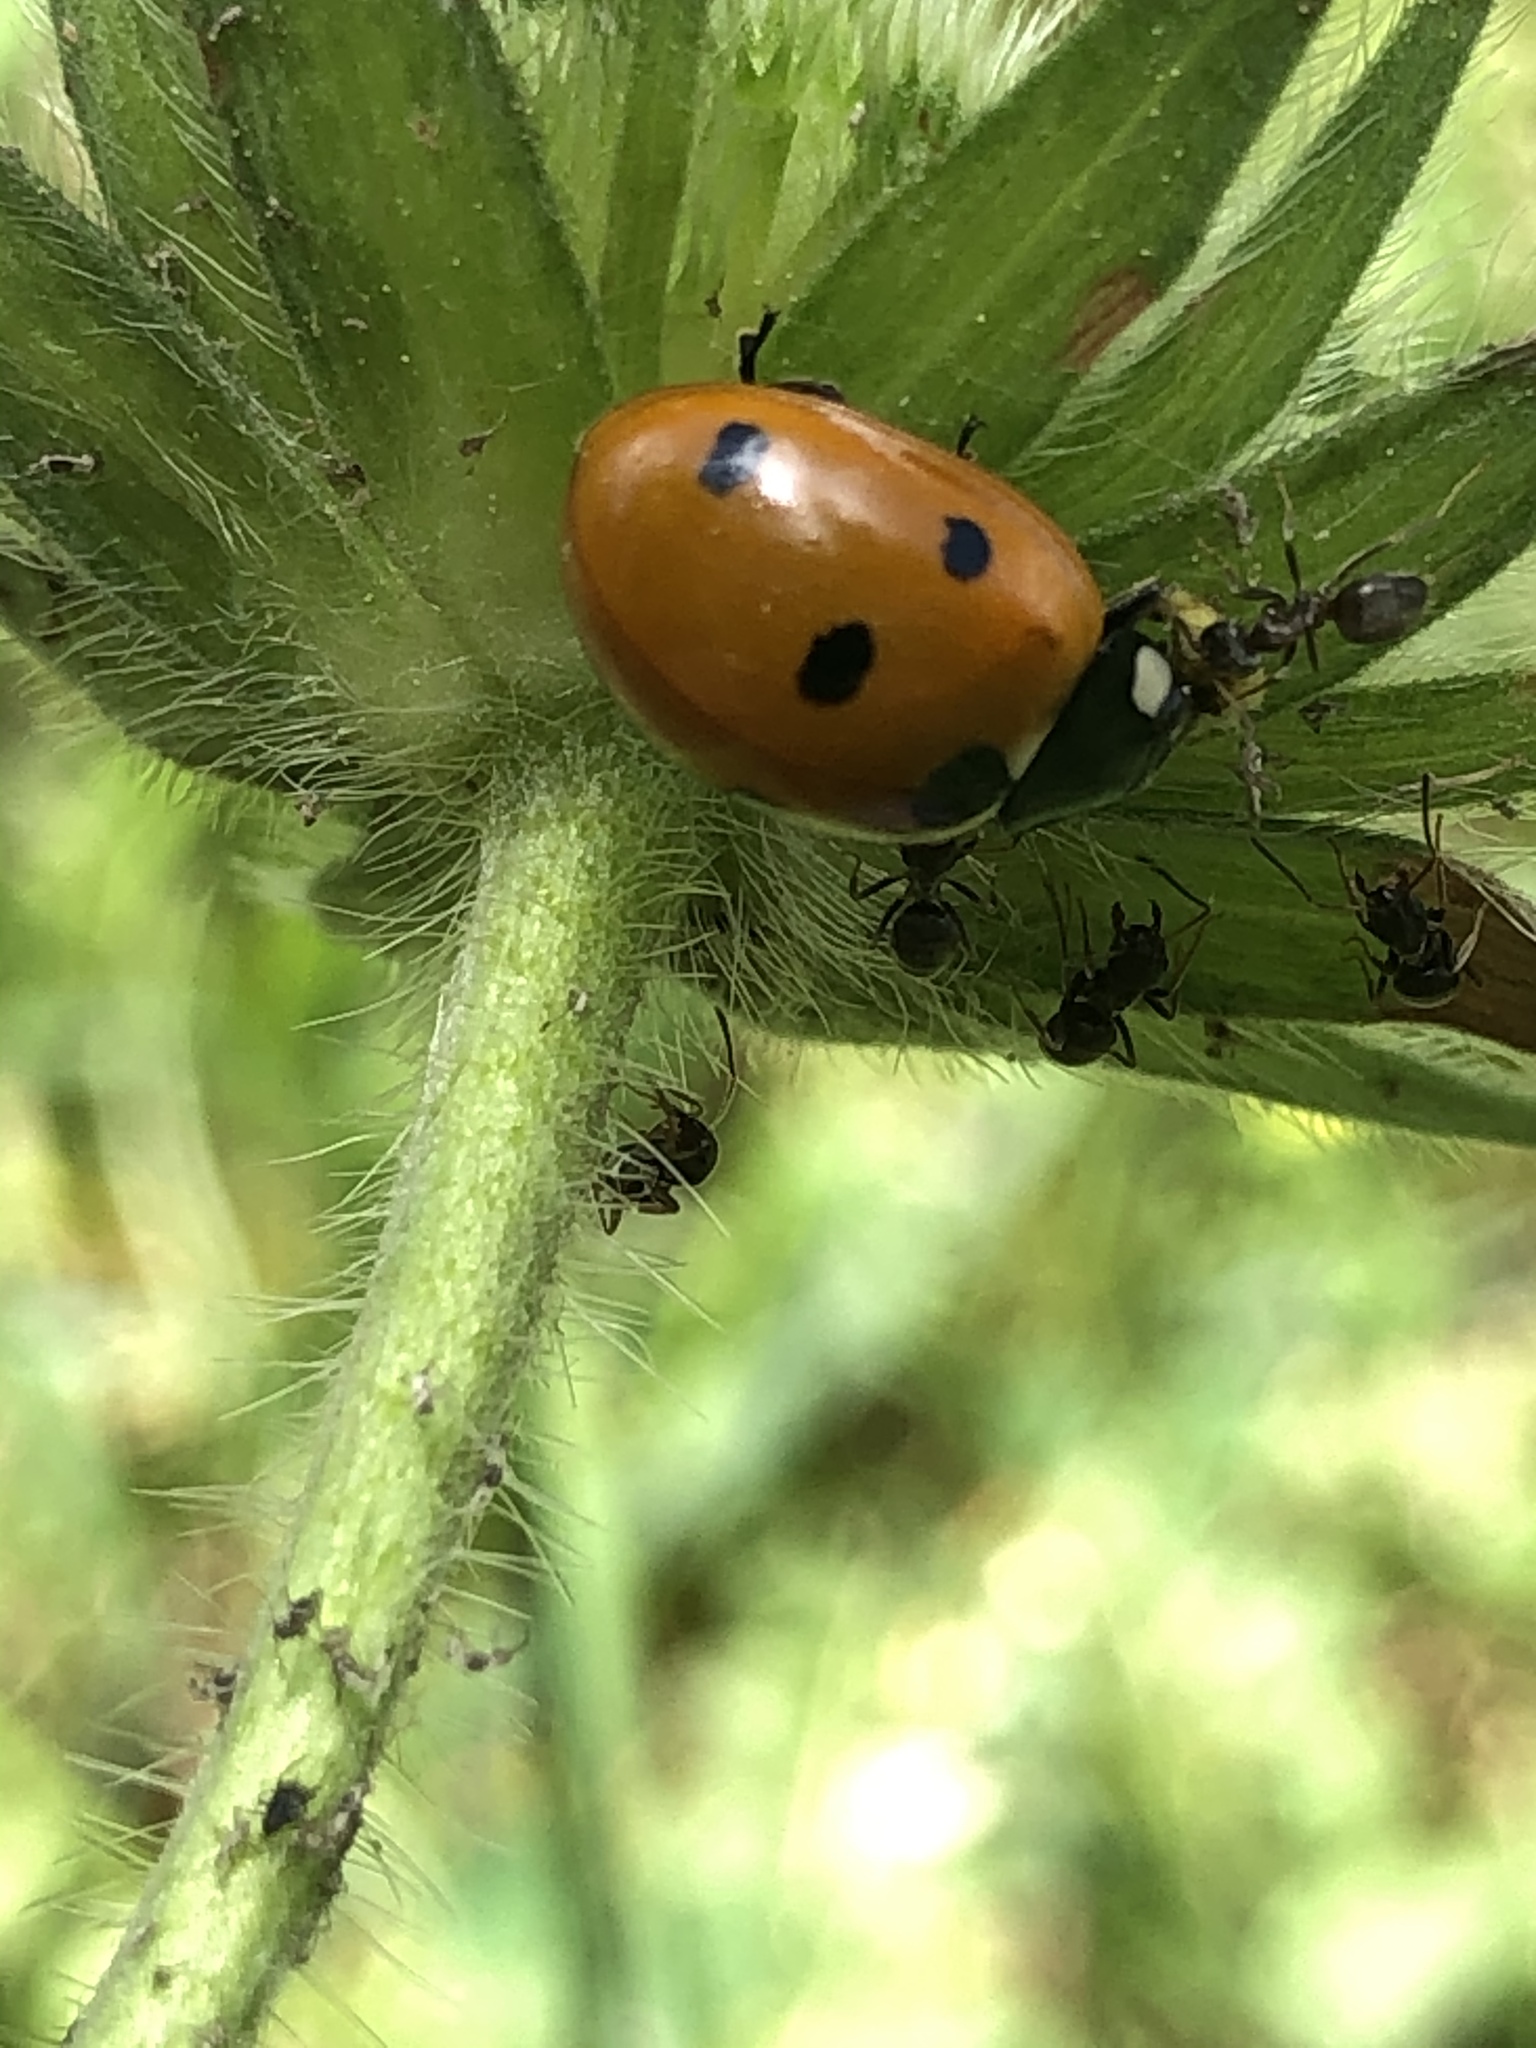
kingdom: Animalia
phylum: Arthropoda
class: Insecta
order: Coleoptera
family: Coccinellidae
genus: Coccinella
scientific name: Coccinella septempunctata
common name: Sevenspotted lady beetle
